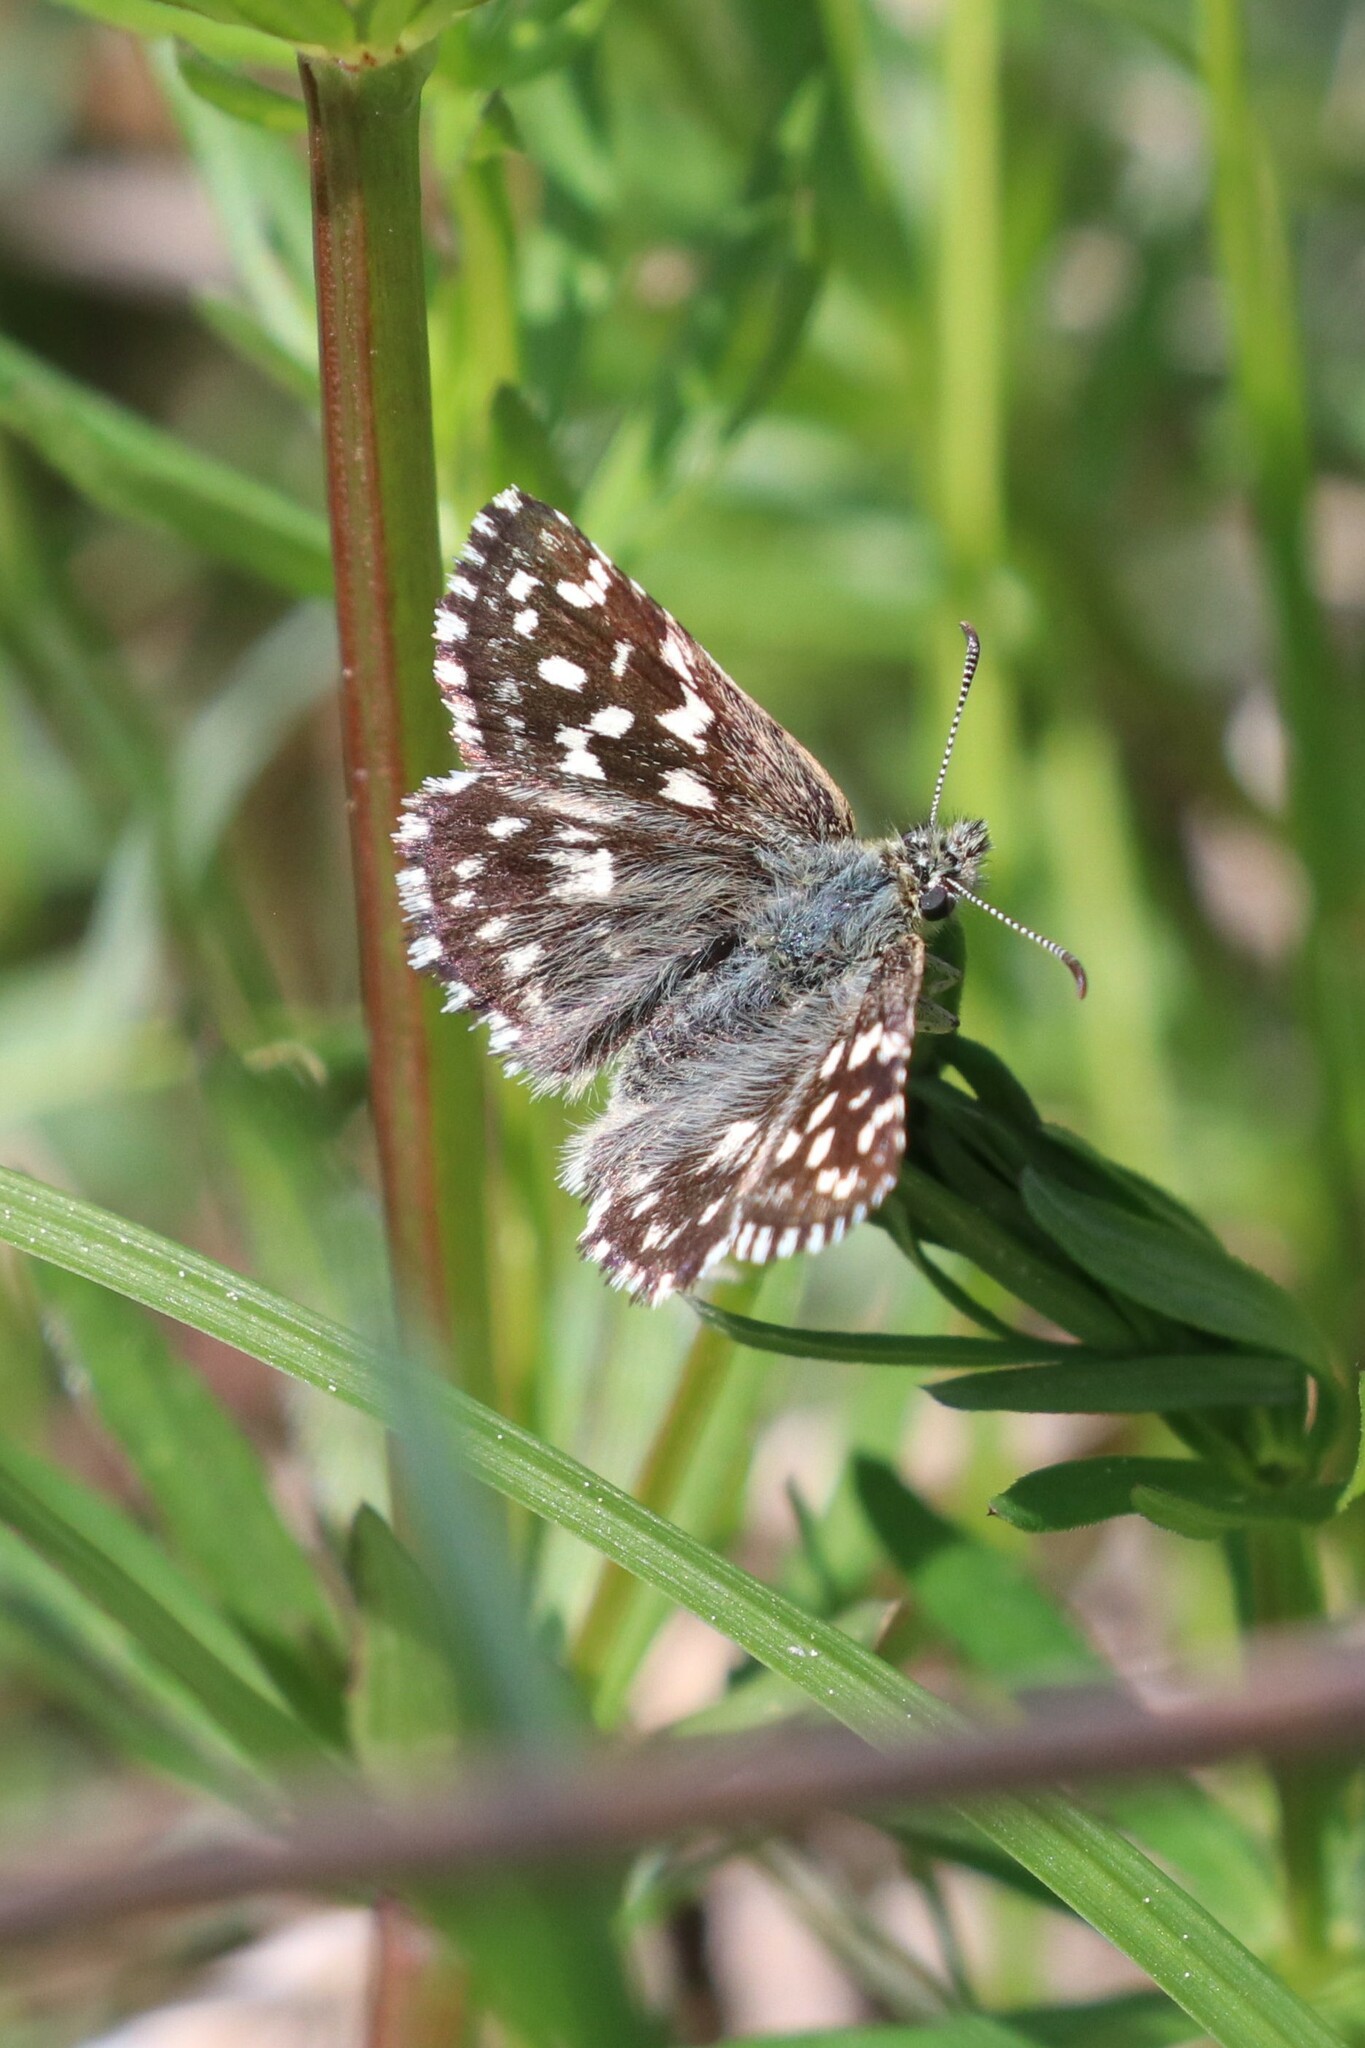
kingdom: Animalia
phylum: Arthropoda
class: Insecta
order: Lepidoptera
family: Hesperiidae
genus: Pyrgus
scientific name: Pyrgus malvae
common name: Grizzled skipper
